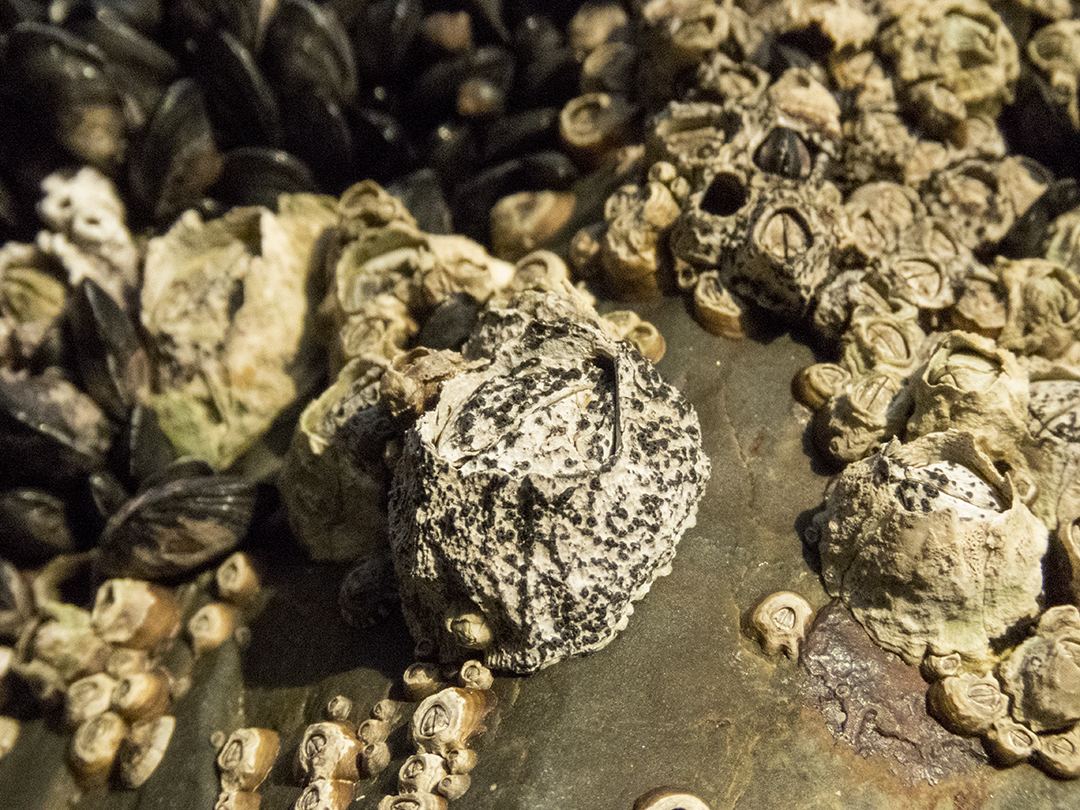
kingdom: Animalia
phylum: Arthropoda
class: Maxillopoda
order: Sessilia
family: Tetraclitidae
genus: Epopella
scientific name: Epopella plicata
